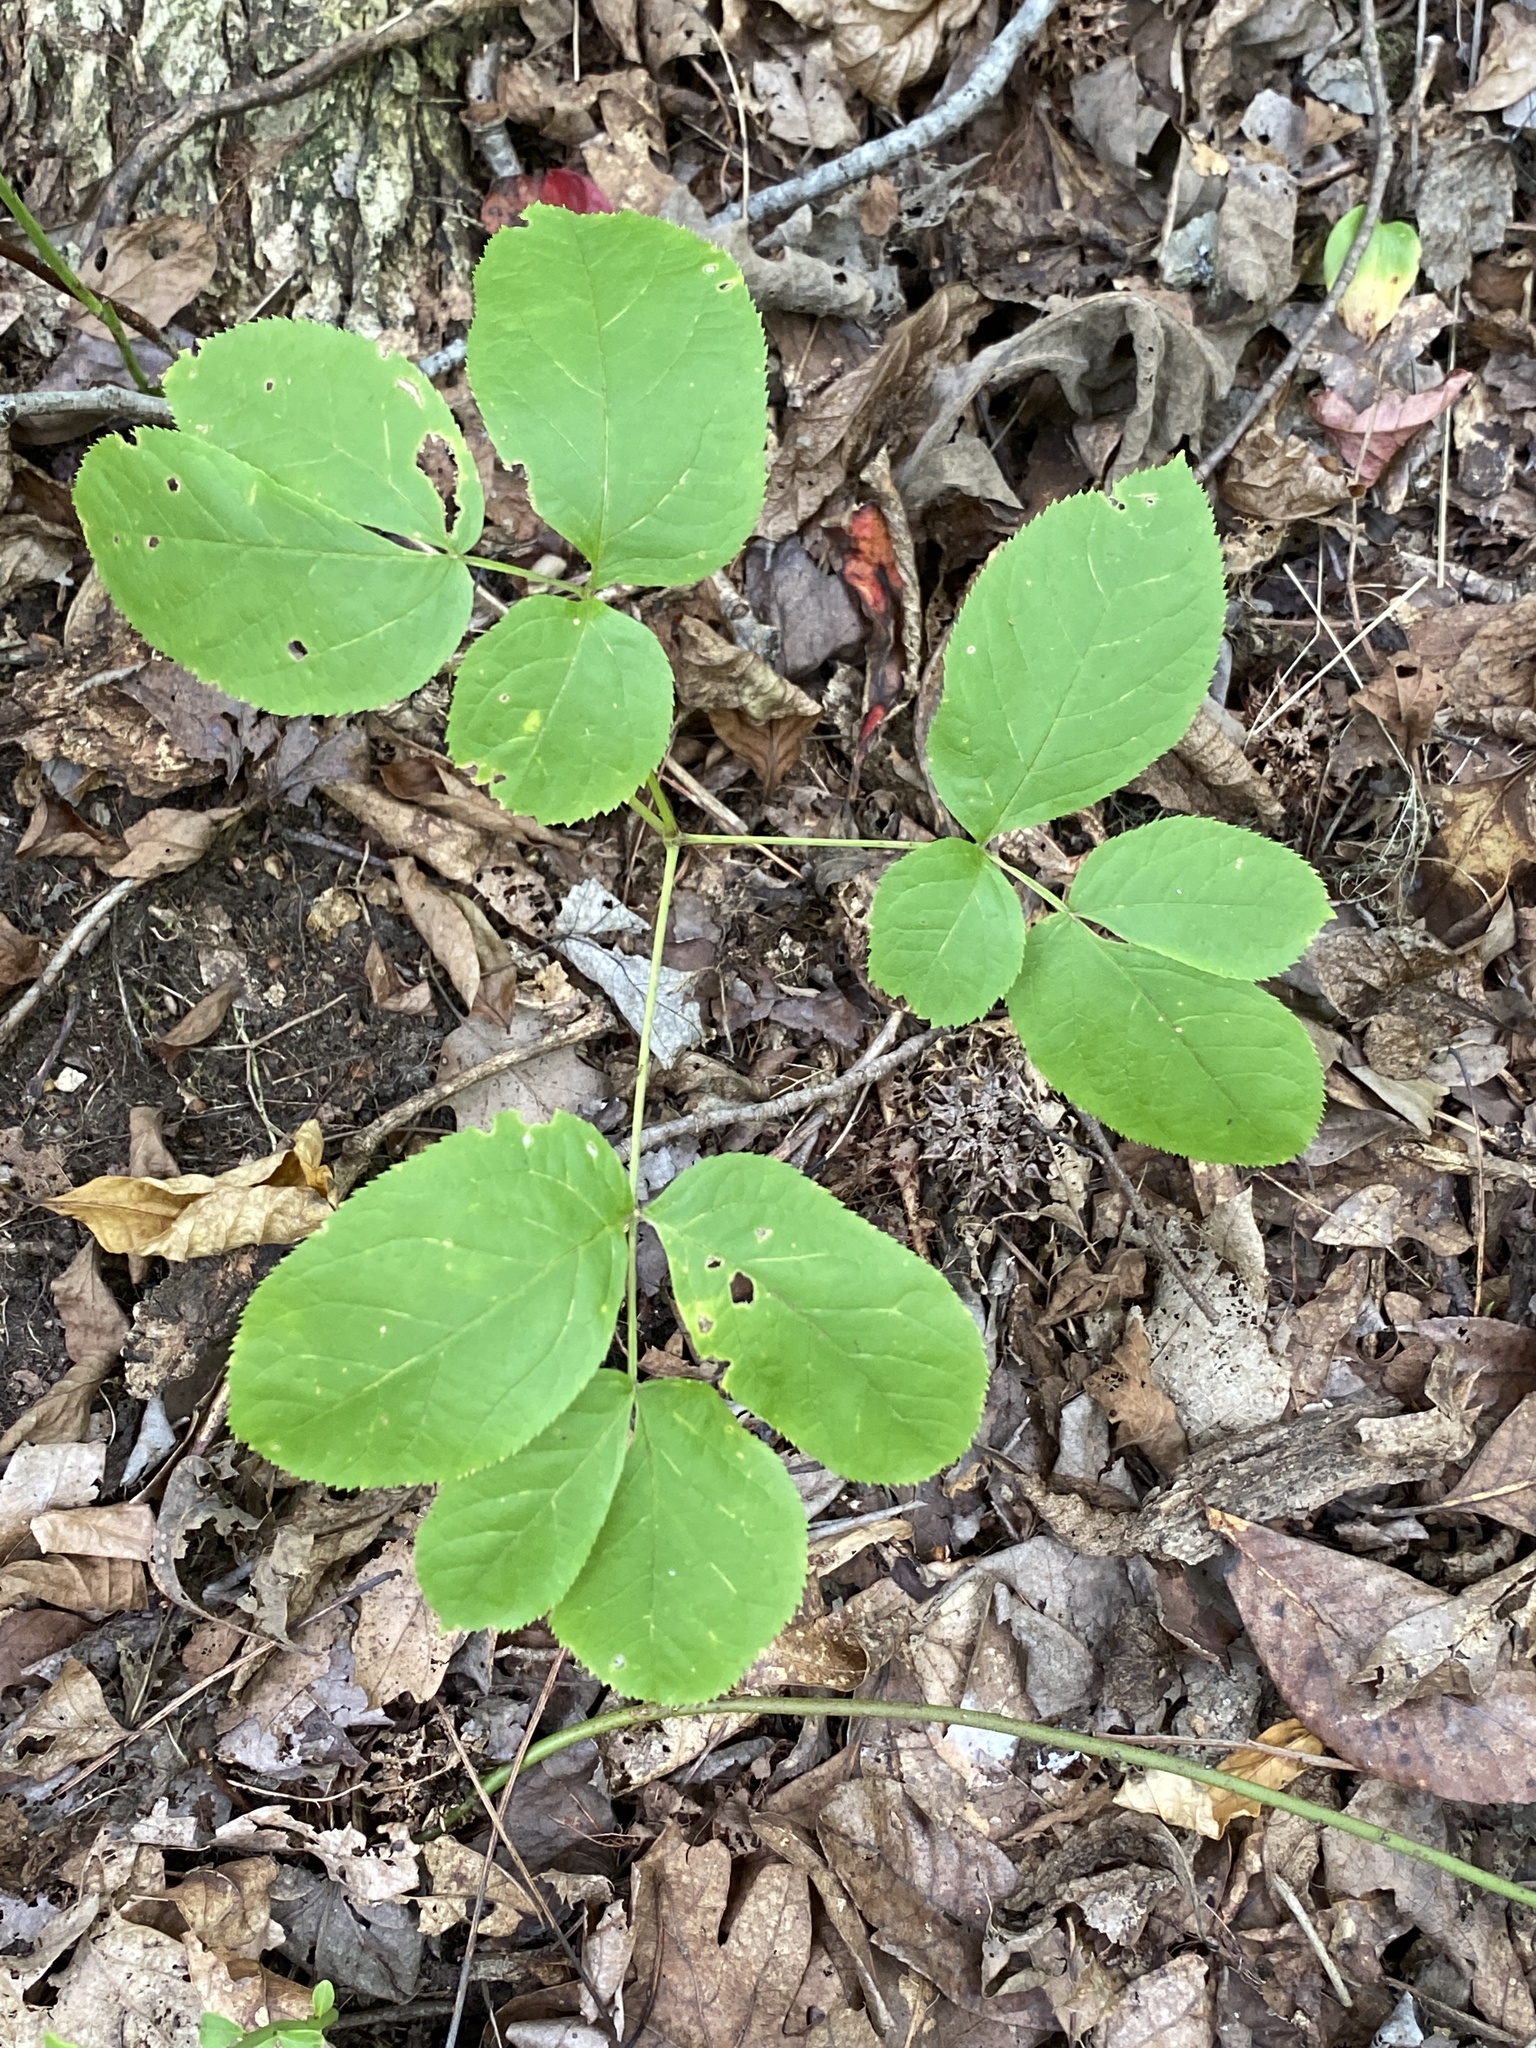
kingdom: Plantae
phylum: Tracheophyta
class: Magnoliopsida
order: Apiales
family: Araliaceae
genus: Aralia
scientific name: Aralia nudicaulis
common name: Wild sarsaparilla
